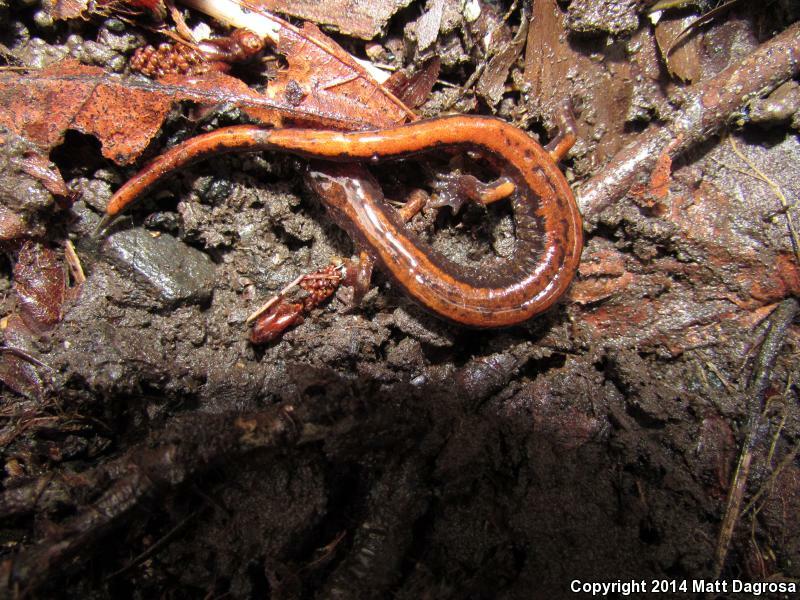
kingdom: Animalia
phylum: Chordata
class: Amphibia
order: Caudata
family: Plethodontidae
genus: Plethodon
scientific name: Plethodon vehiculum
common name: Western red-backed salamander
